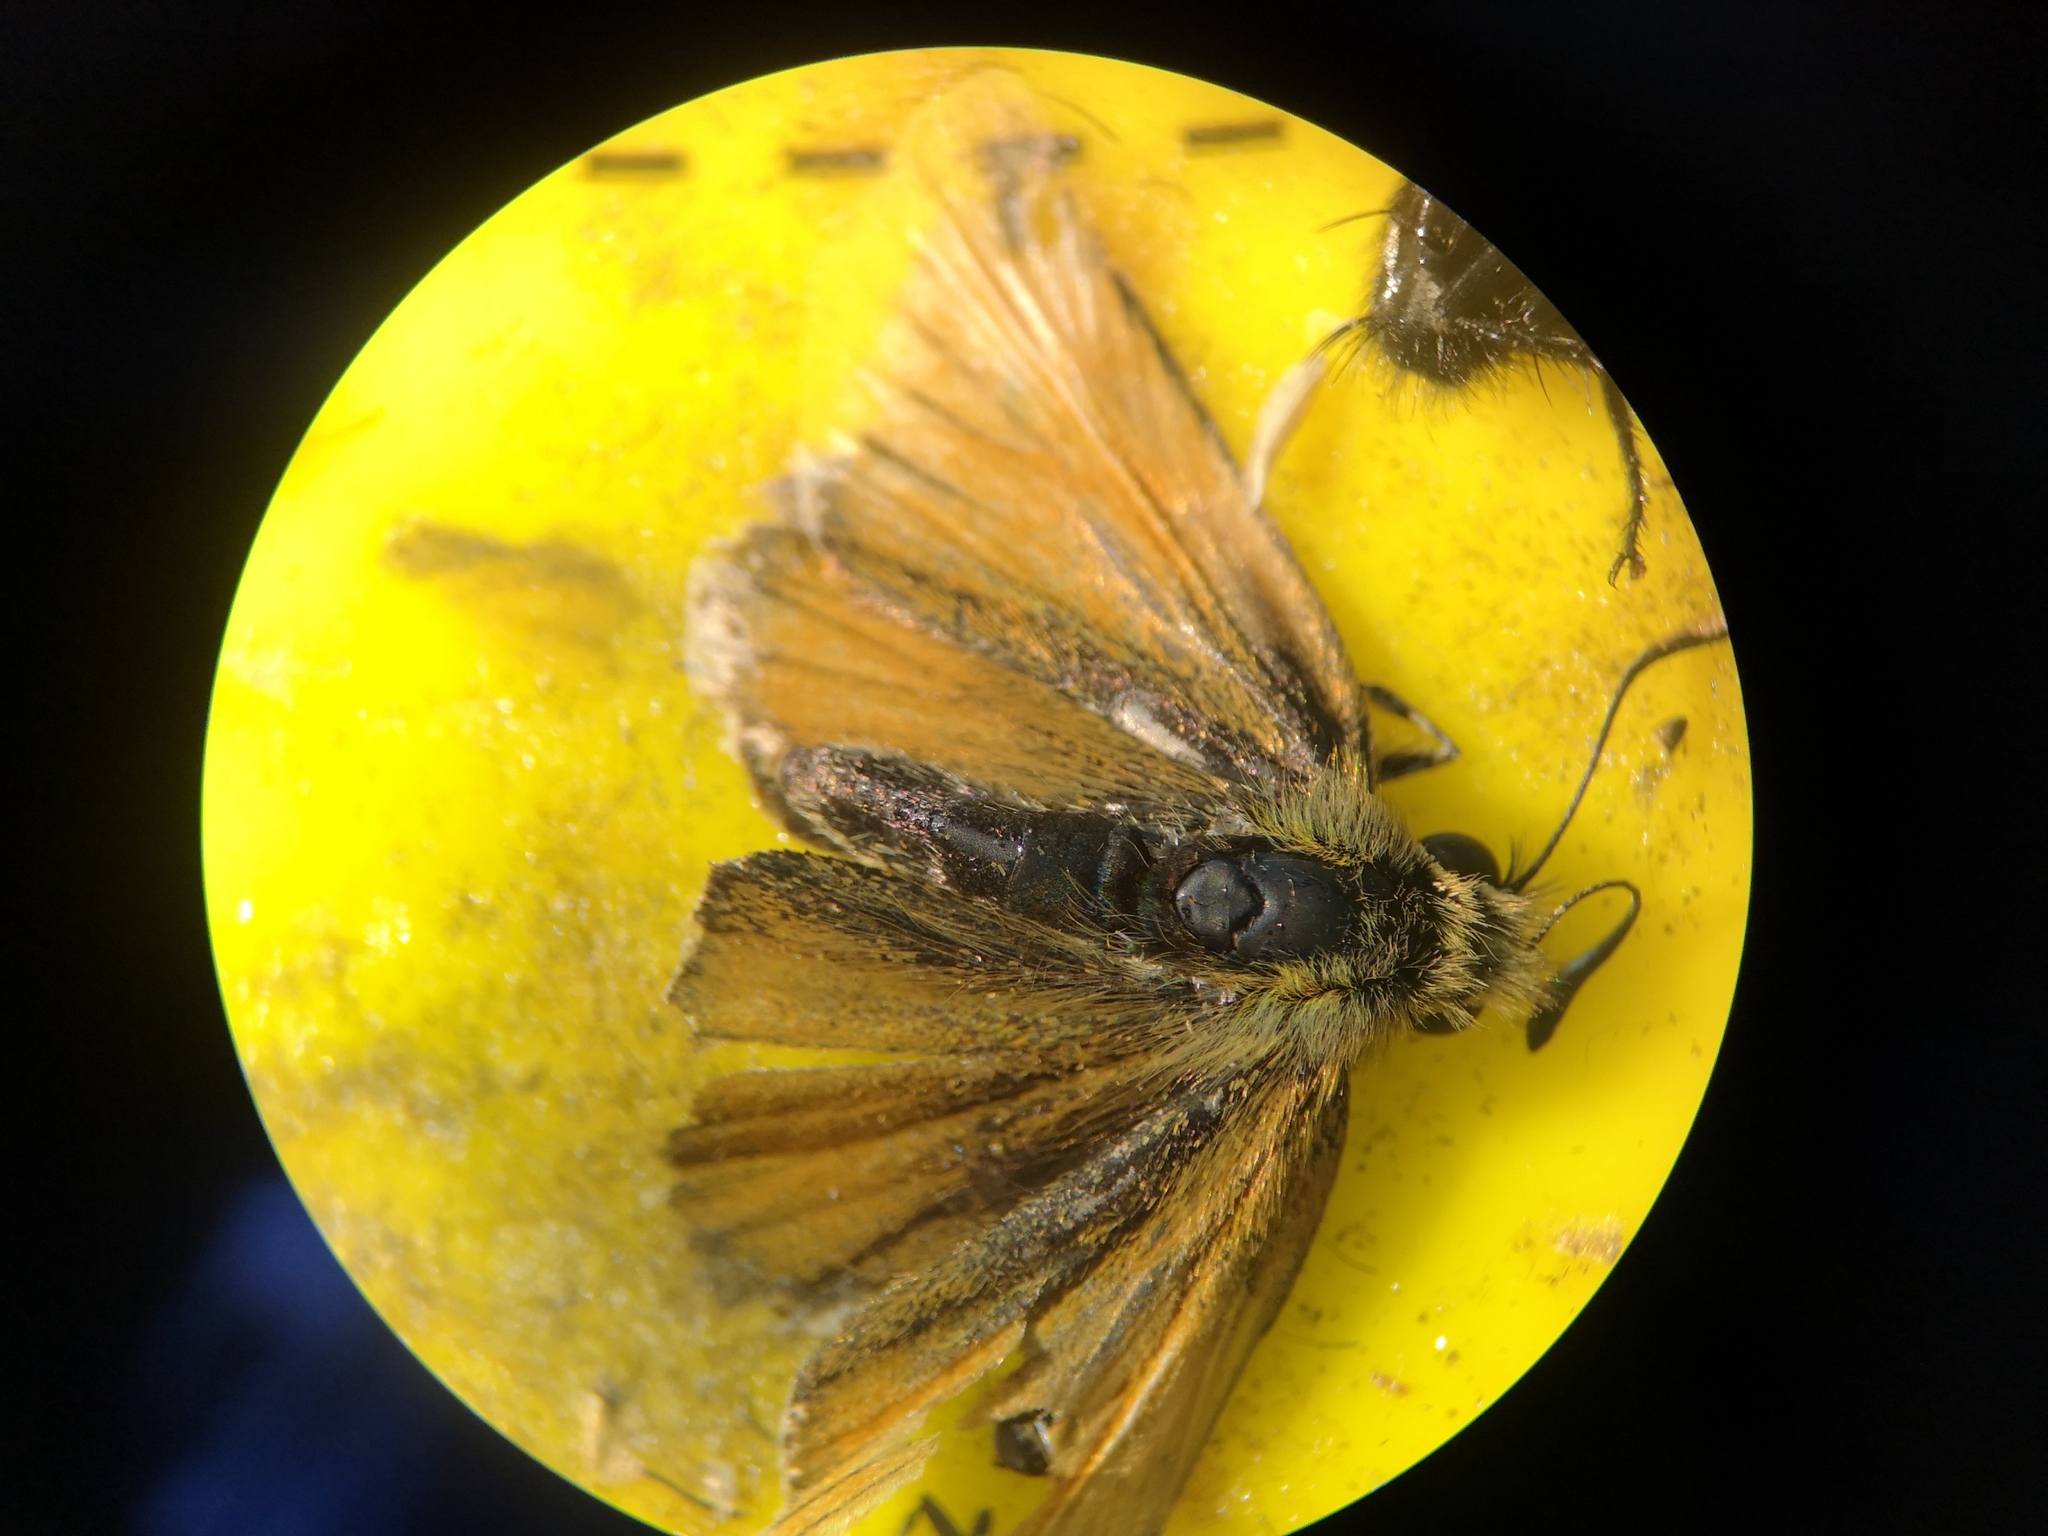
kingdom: Animalia
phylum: Arthropoda
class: Insecta
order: Lepidoptera
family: Hesperiidae
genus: Thymelicus
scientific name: Thymelicus lineola
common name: Essex skipper
